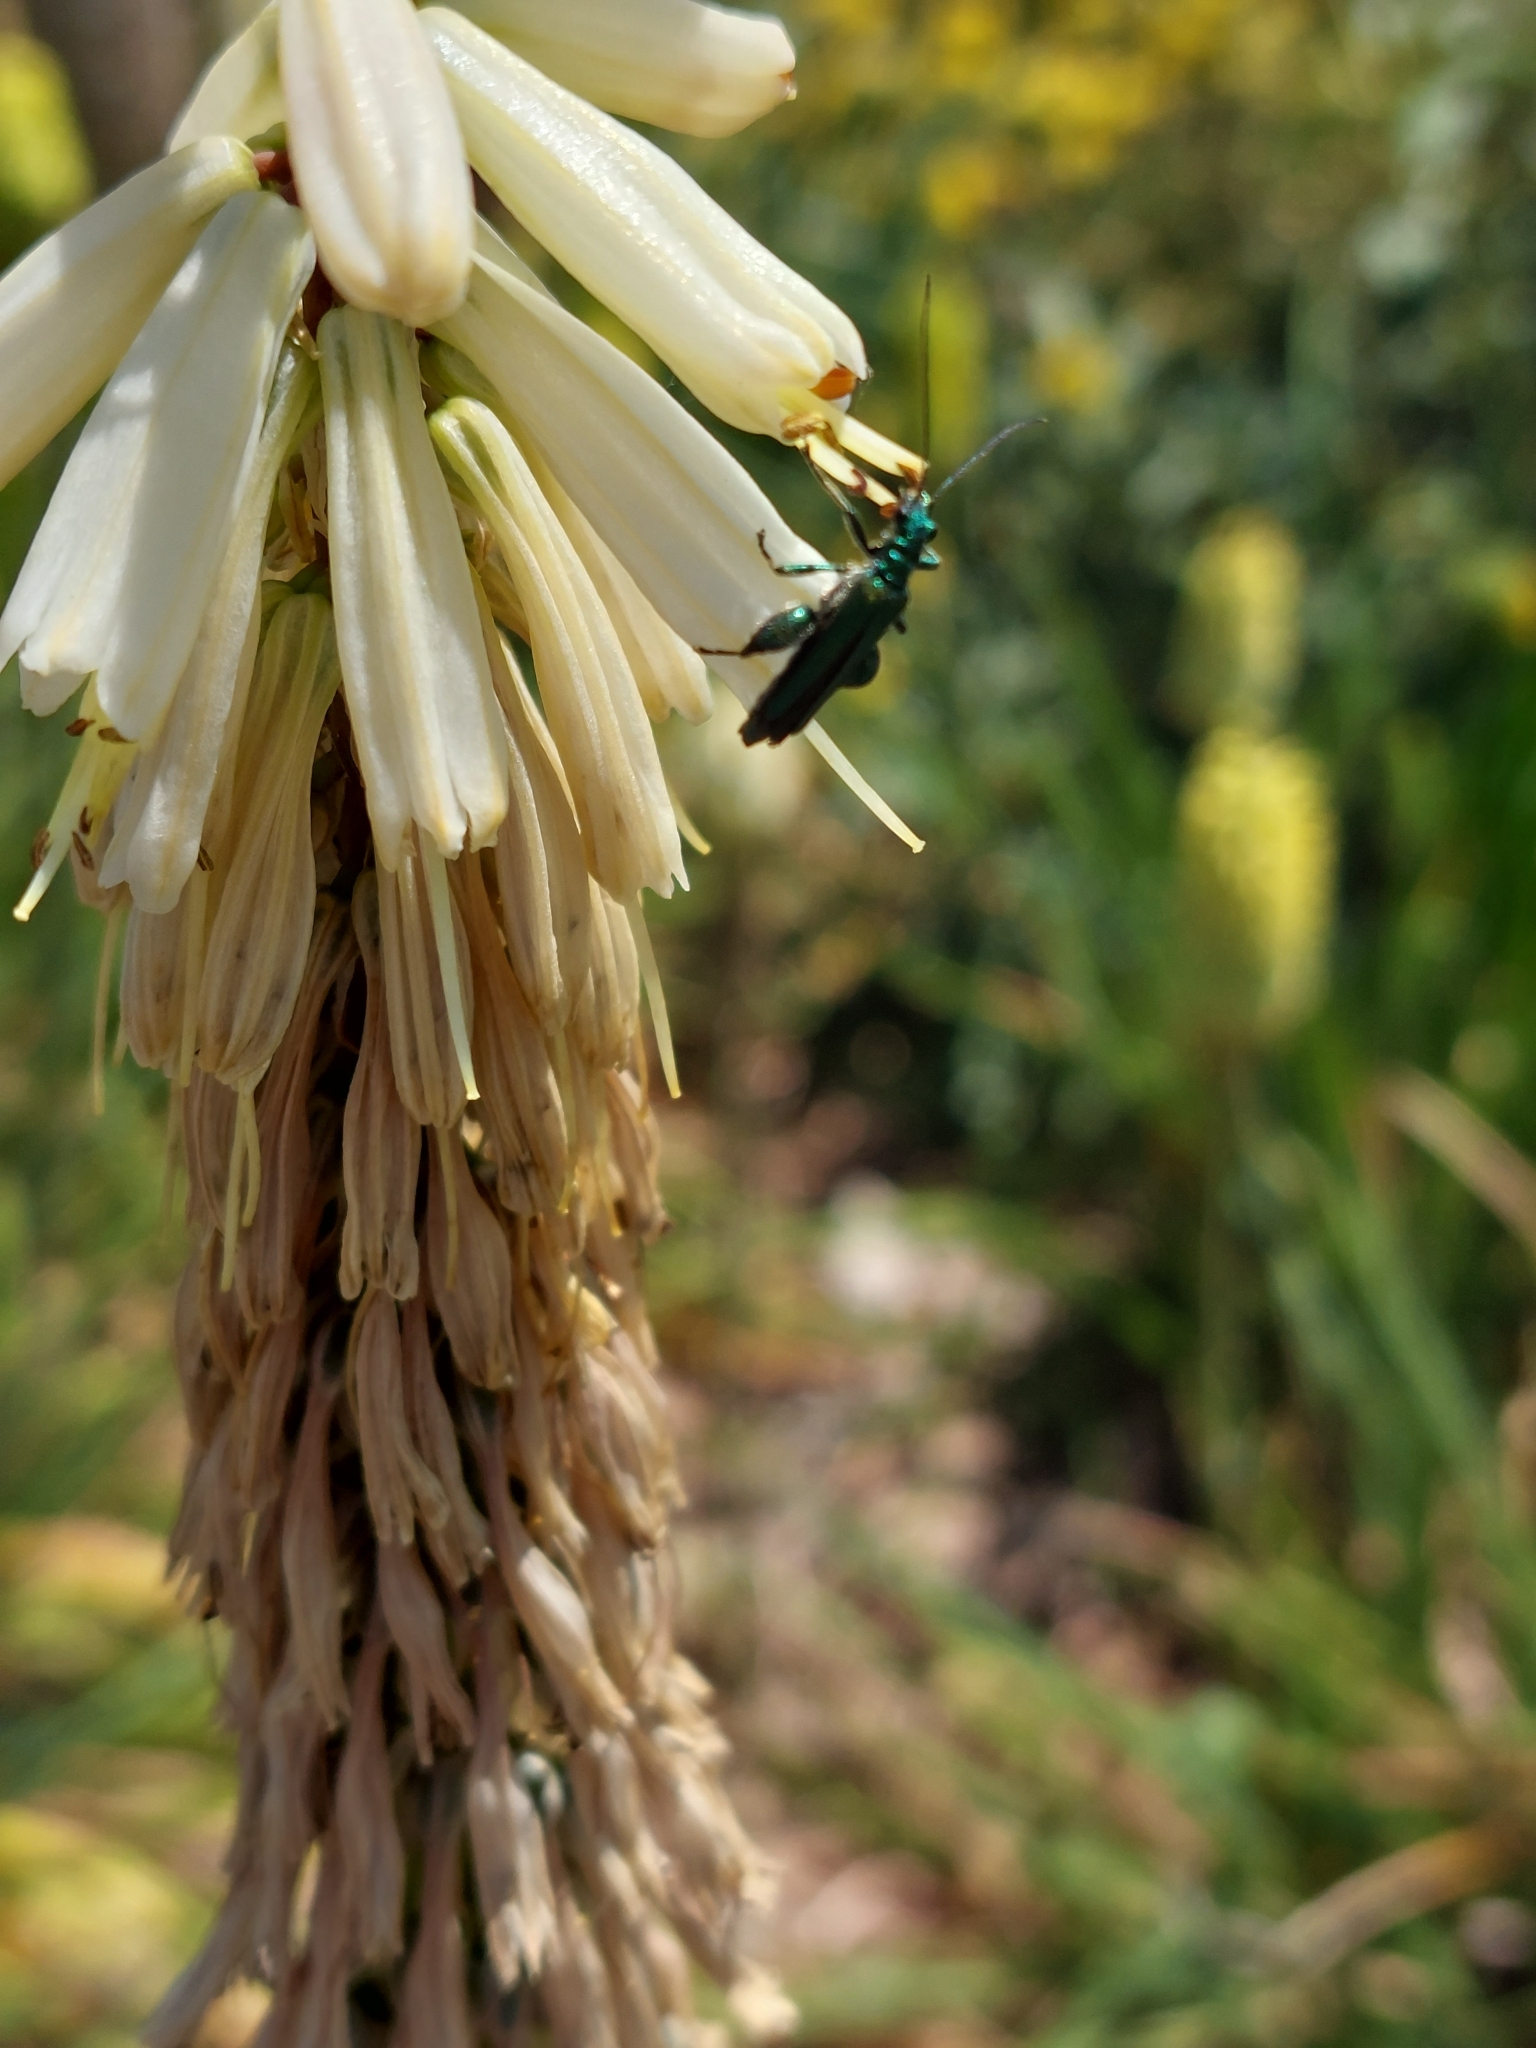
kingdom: Animalia
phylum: Arthropoda
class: Insecta
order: Coleoptera
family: Oedemeridae
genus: Oedemera
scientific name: Oedemera nobilis
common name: Swollen-thighed beetle
